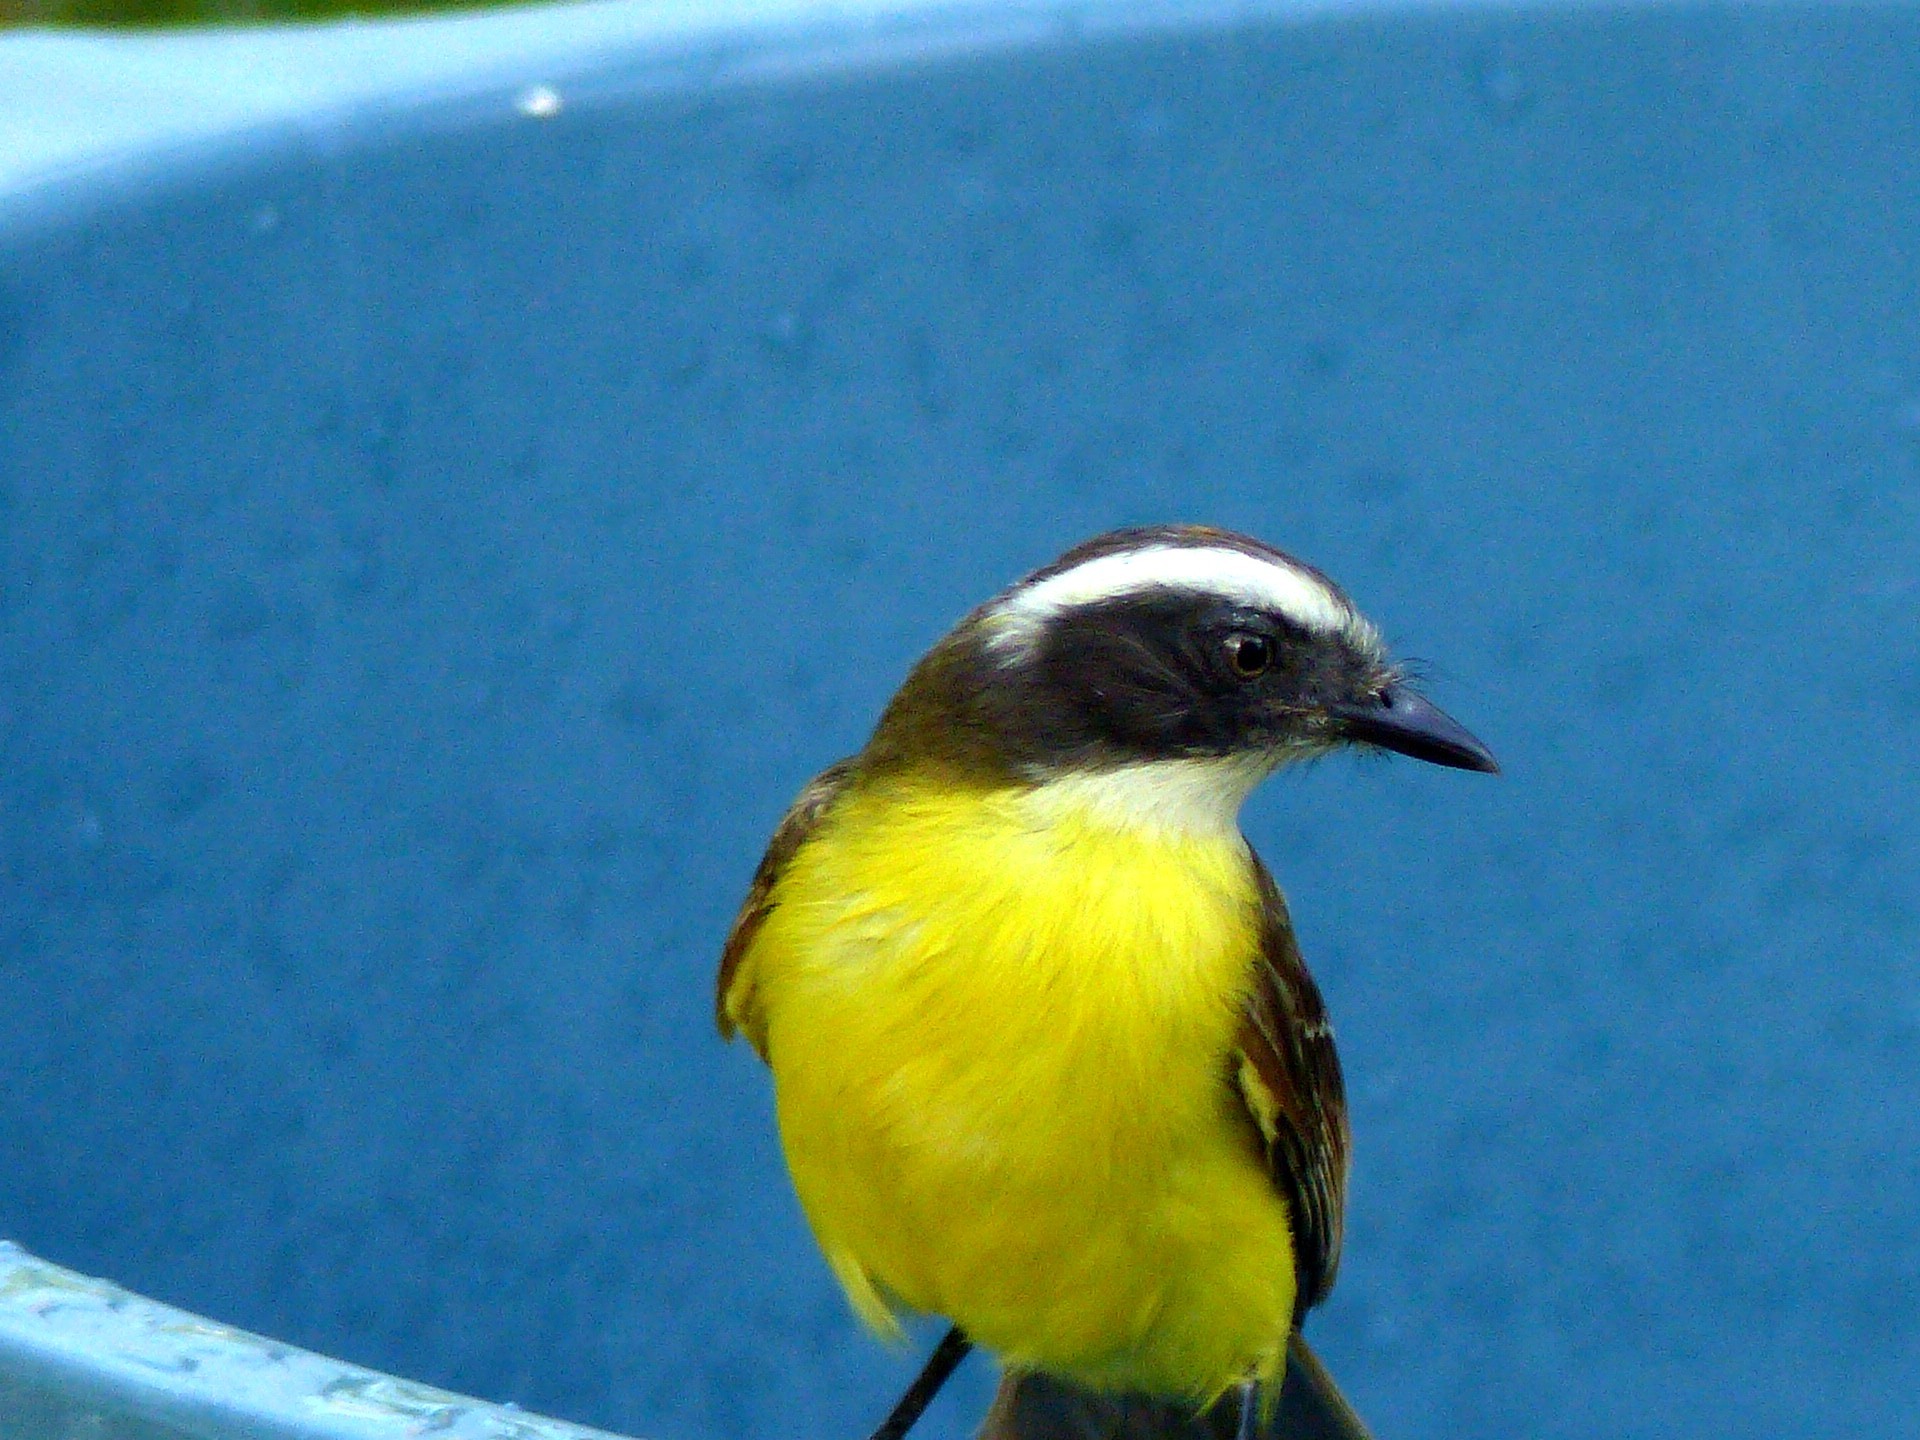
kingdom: Animalia
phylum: Chordata
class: Aves
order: Passeriformes
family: Tyrannidae
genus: Myiozetetes
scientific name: Myiozetetes similis
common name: Social flycatcher
